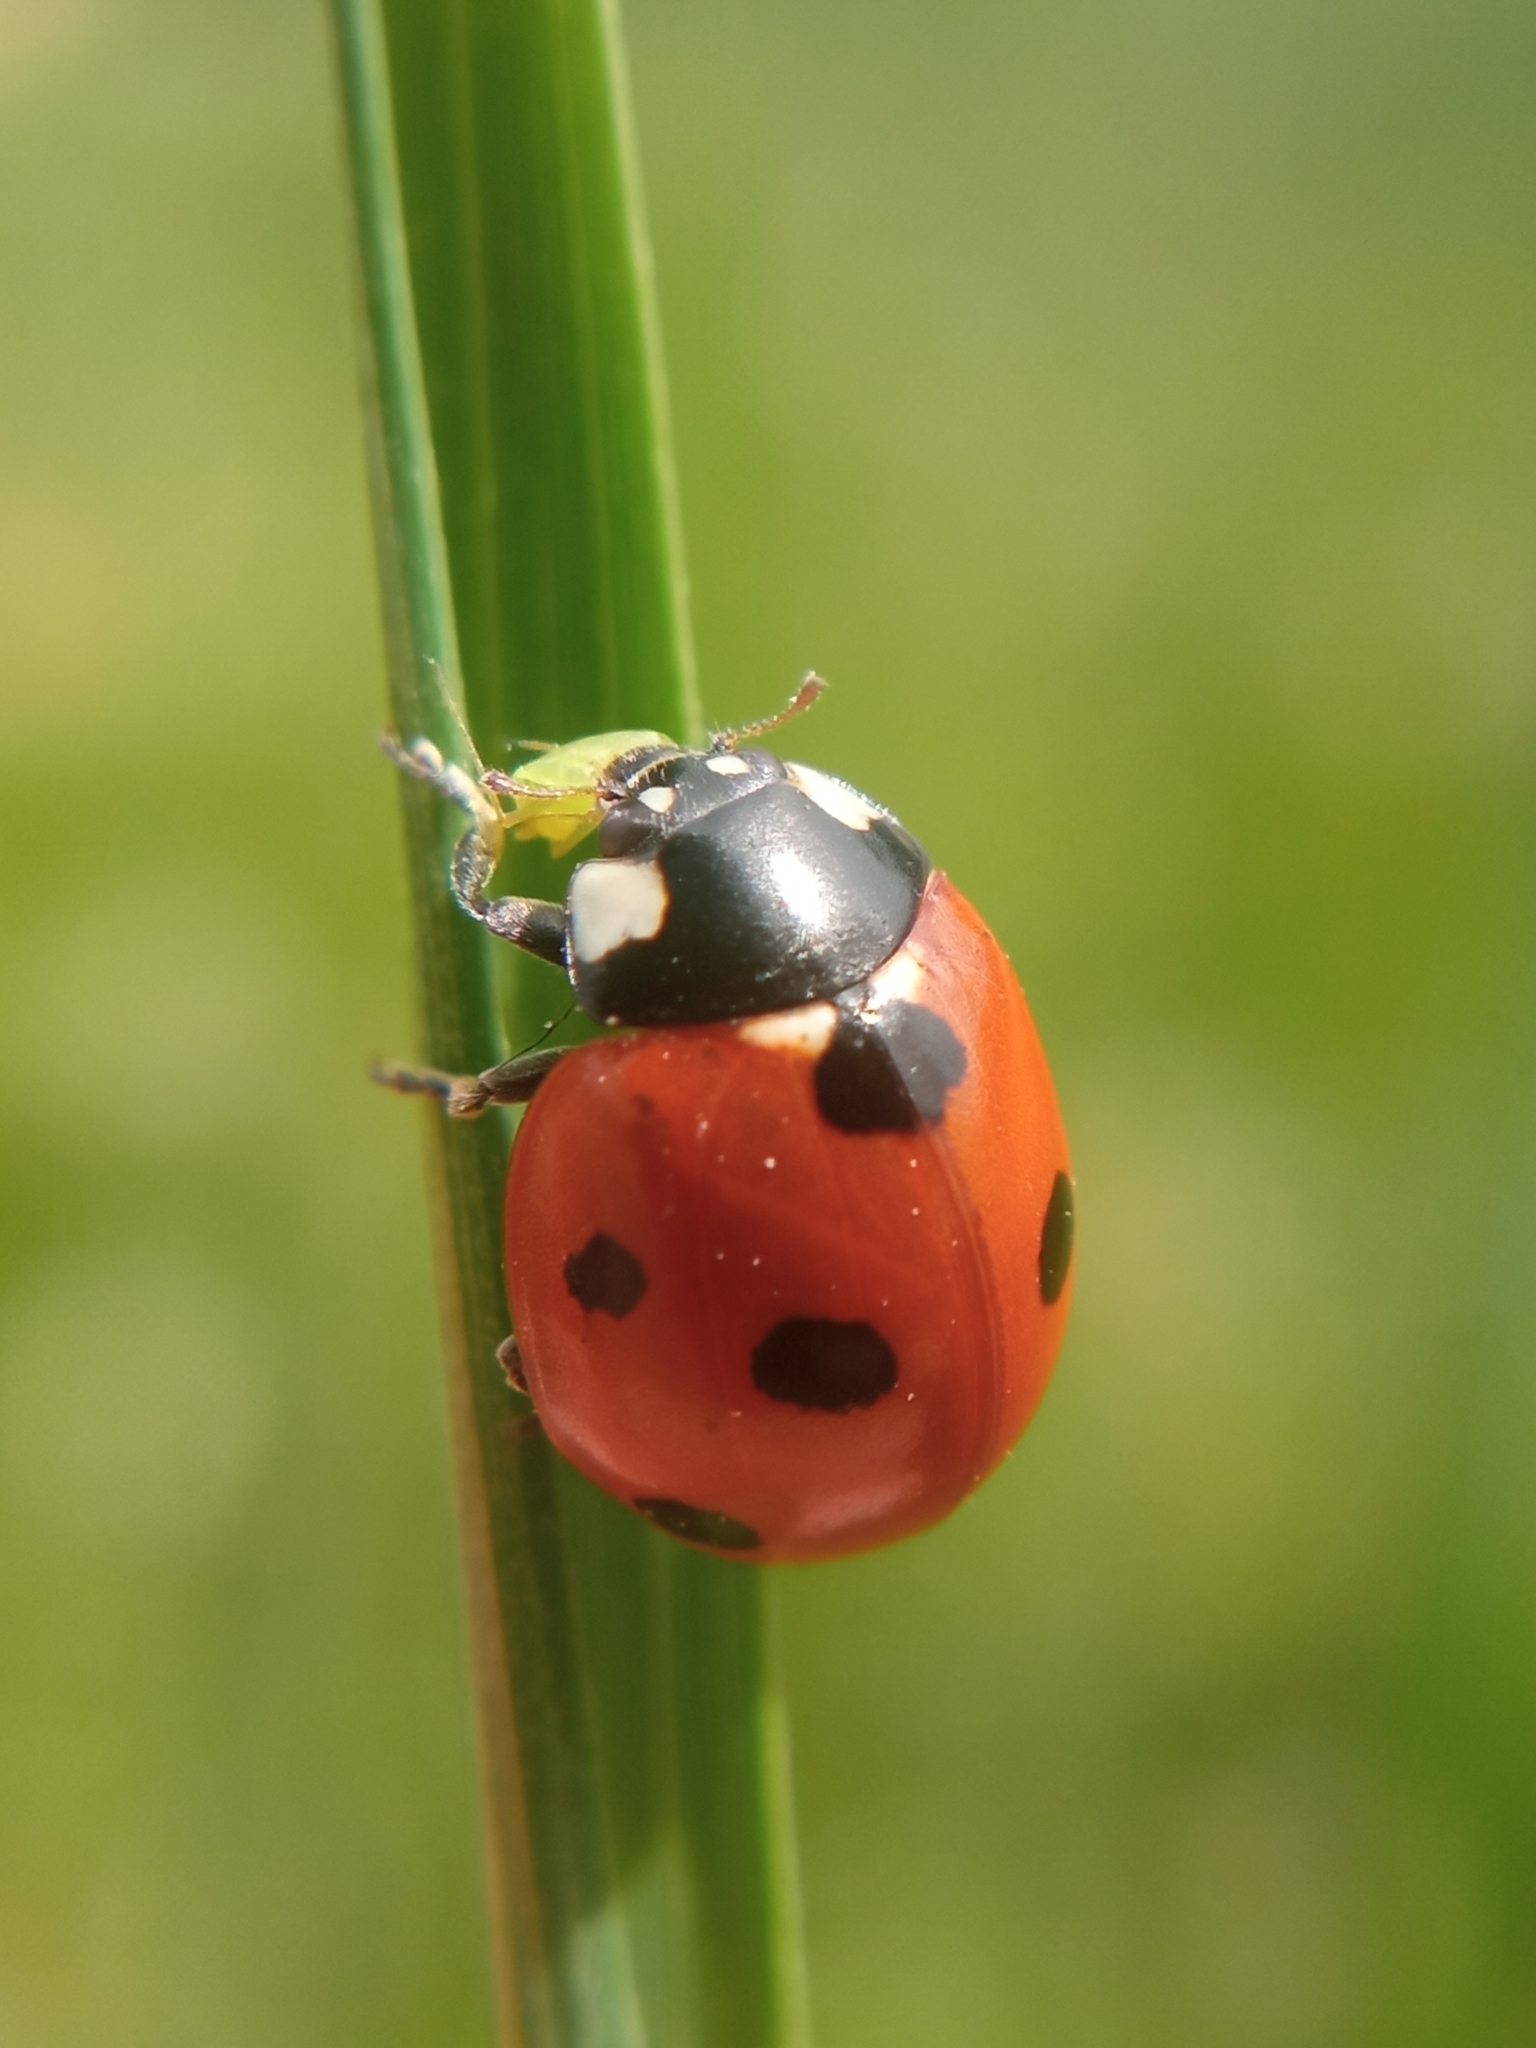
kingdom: Animalia
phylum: Arthropoda
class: Insecta
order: Coleoptera
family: Coccinellidae
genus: Coccinella
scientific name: Coccinella septempunctata
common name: Sevenspotted lady beetle
